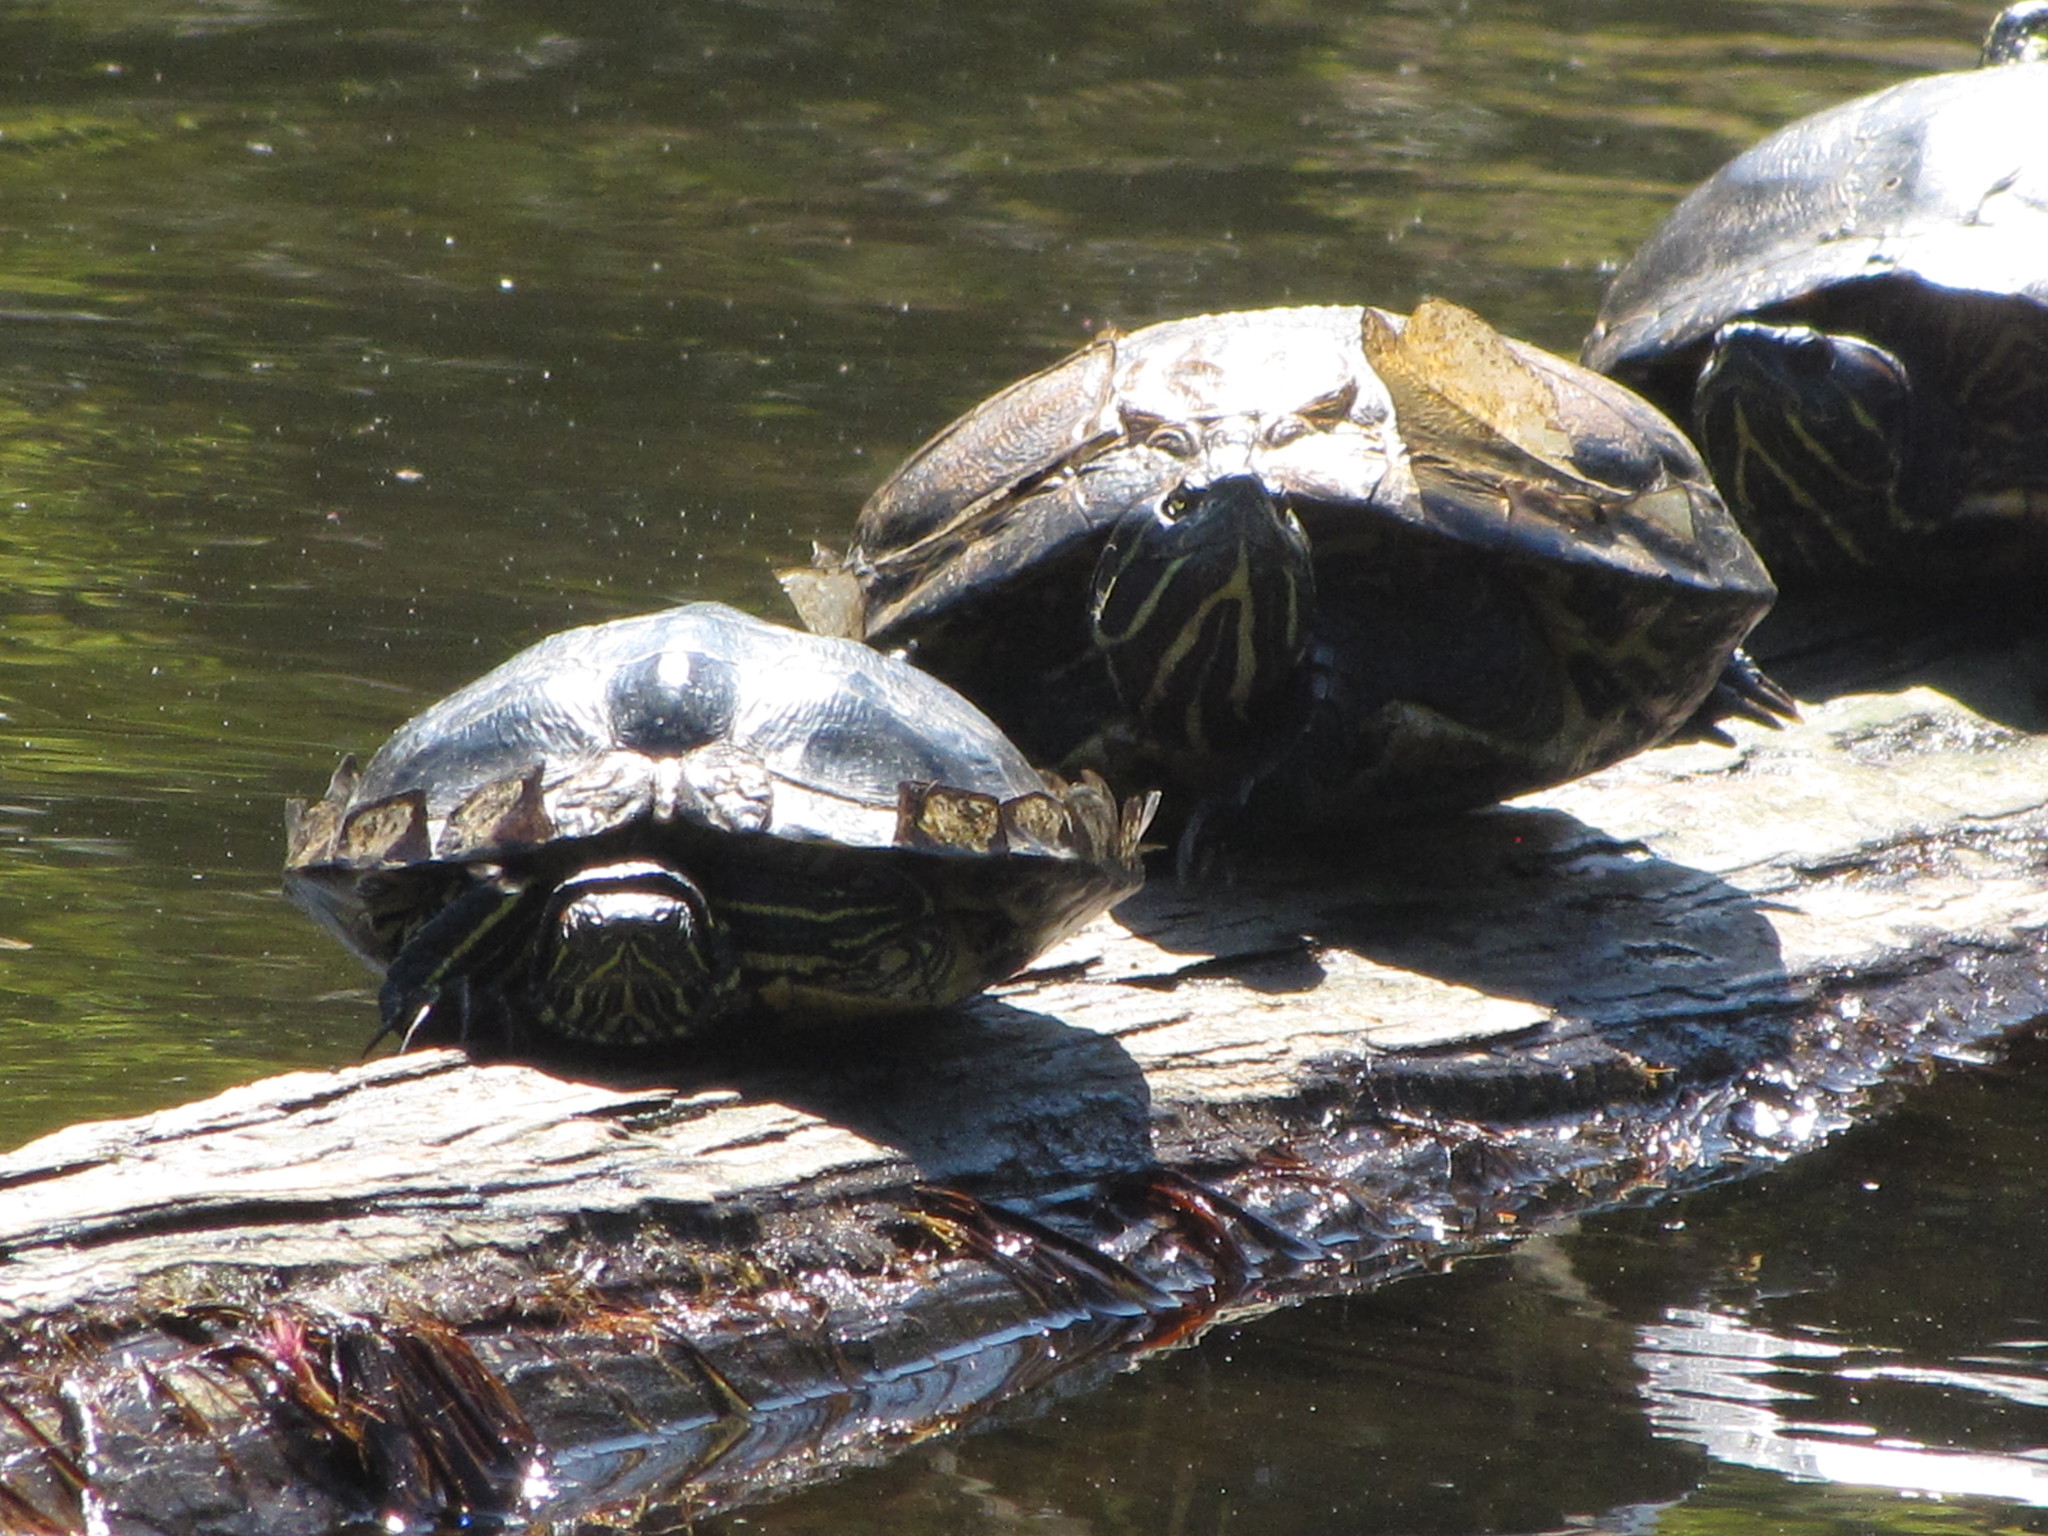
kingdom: Animalia
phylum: Chordata
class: Testudines
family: Emydidae
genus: Trachemys
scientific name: Trachemys scripta
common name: Slider
